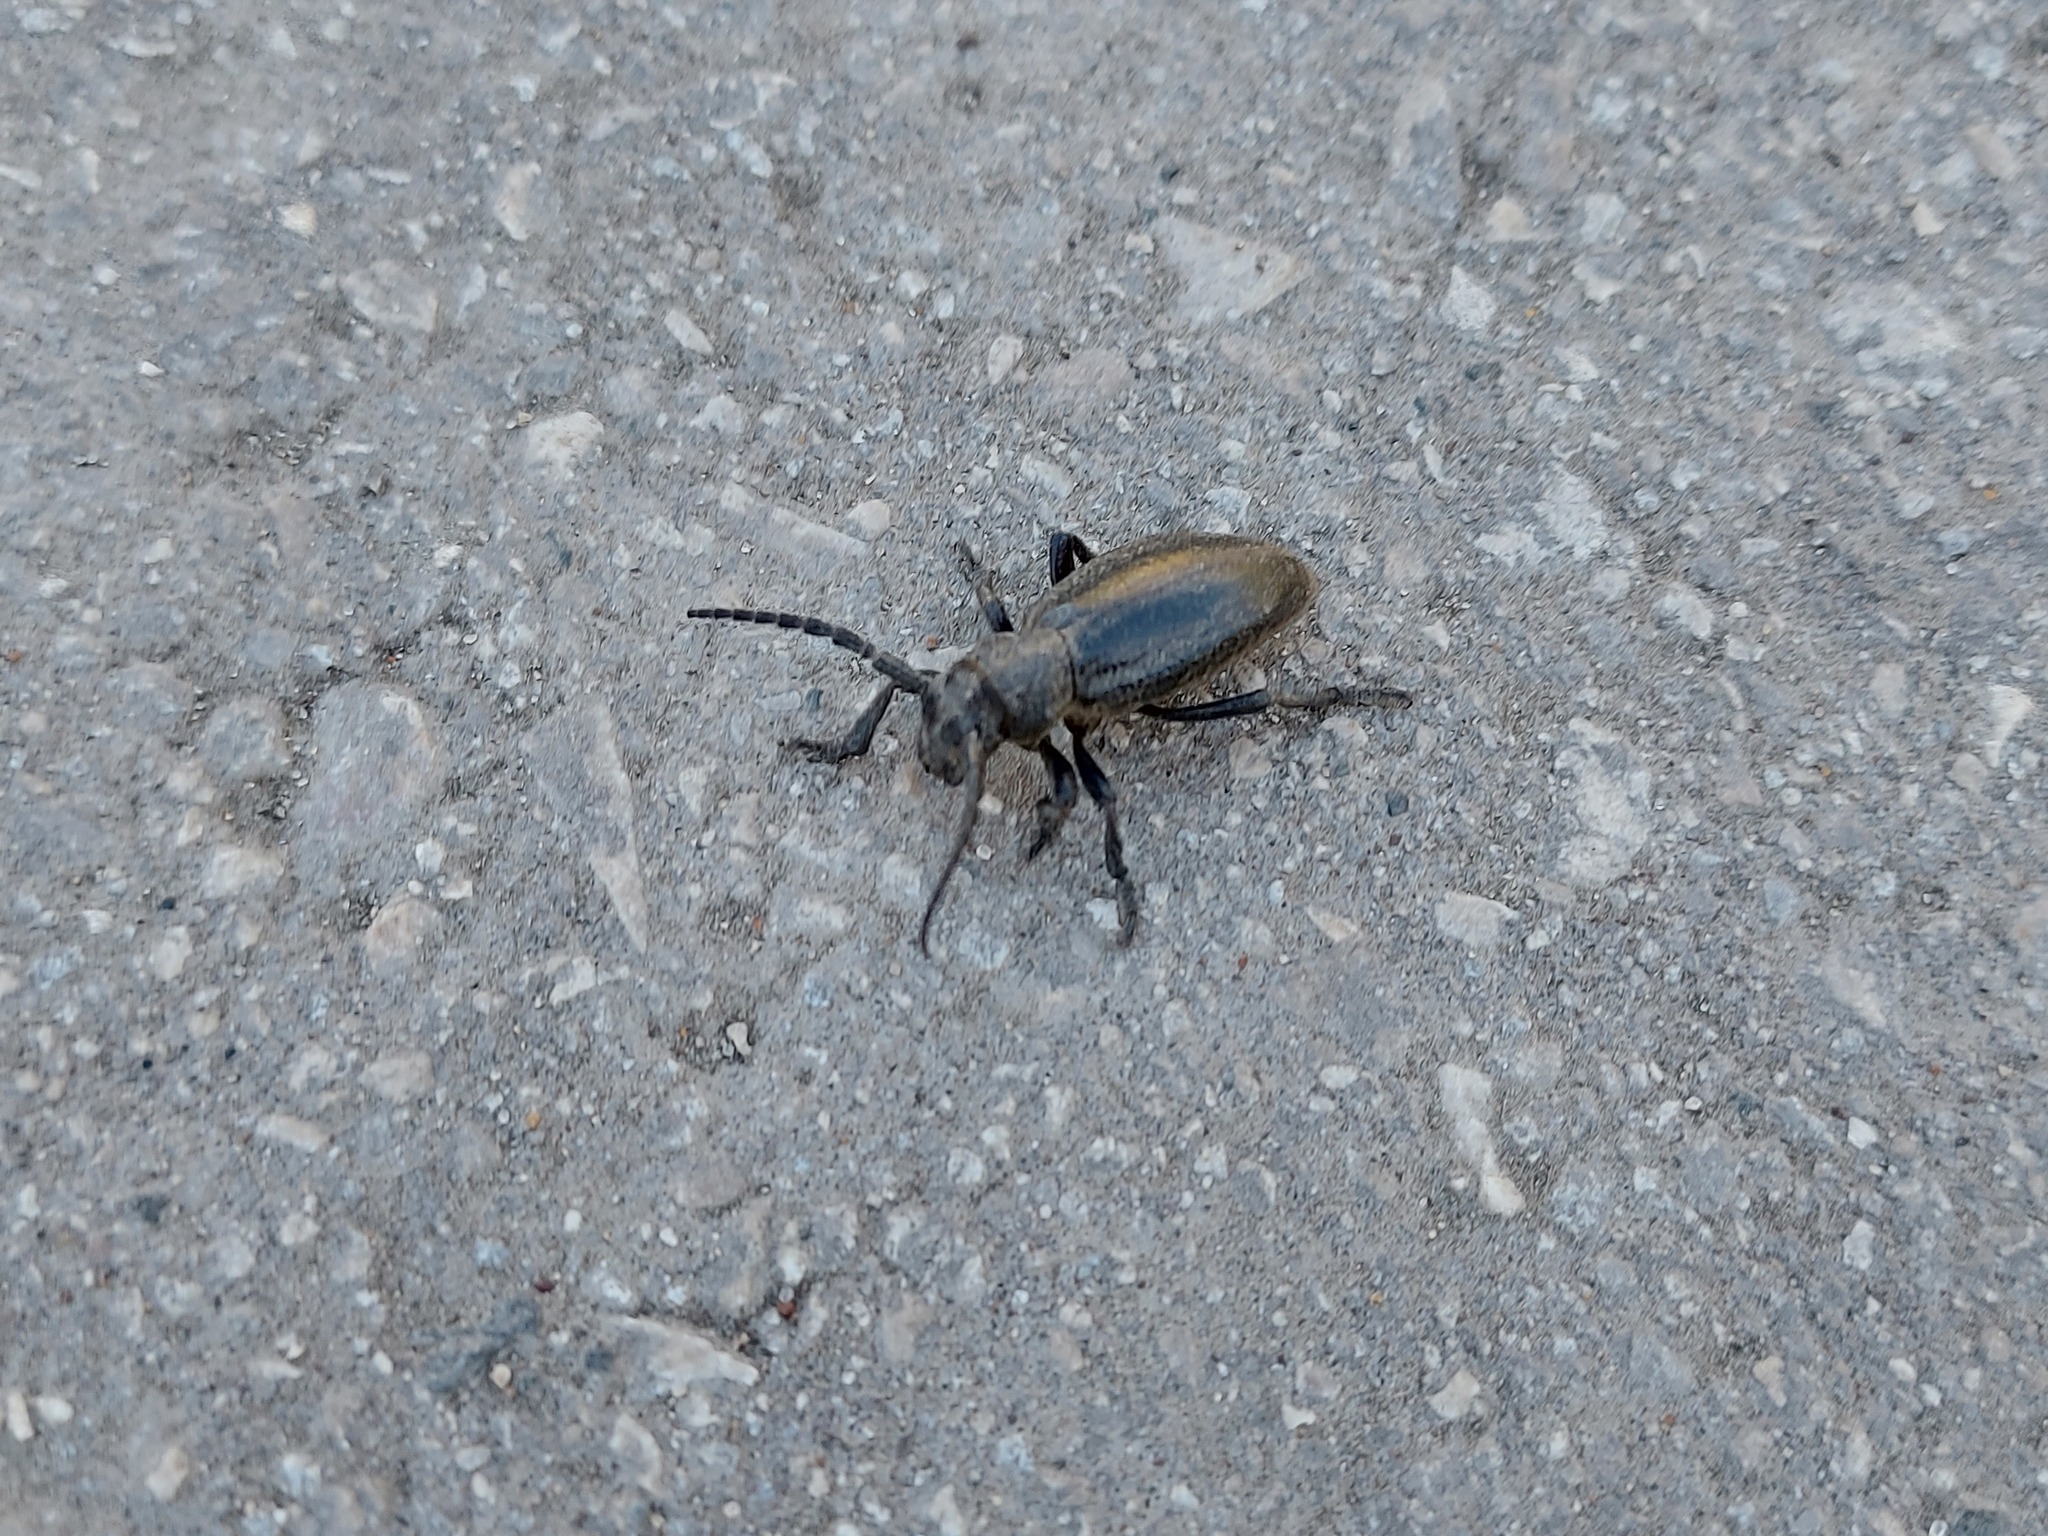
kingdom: Animalia
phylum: Arthropoda
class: Insecta
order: Coleoptera
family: Cerambycidae
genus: Dorcadion
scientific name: Dorcadion carinatum
